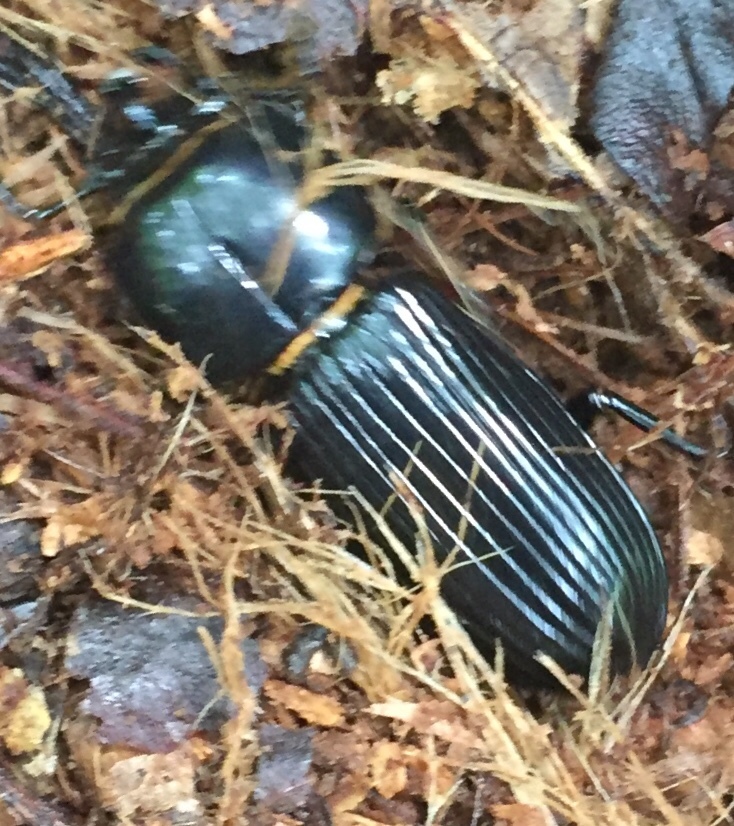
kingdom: Animalia
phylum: Arthropoda
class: Insecta
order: Coleoptera
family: Passalidae
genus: Odontotaenius
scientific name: Odontotaenius disjunctus
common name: Patent leather beetle
